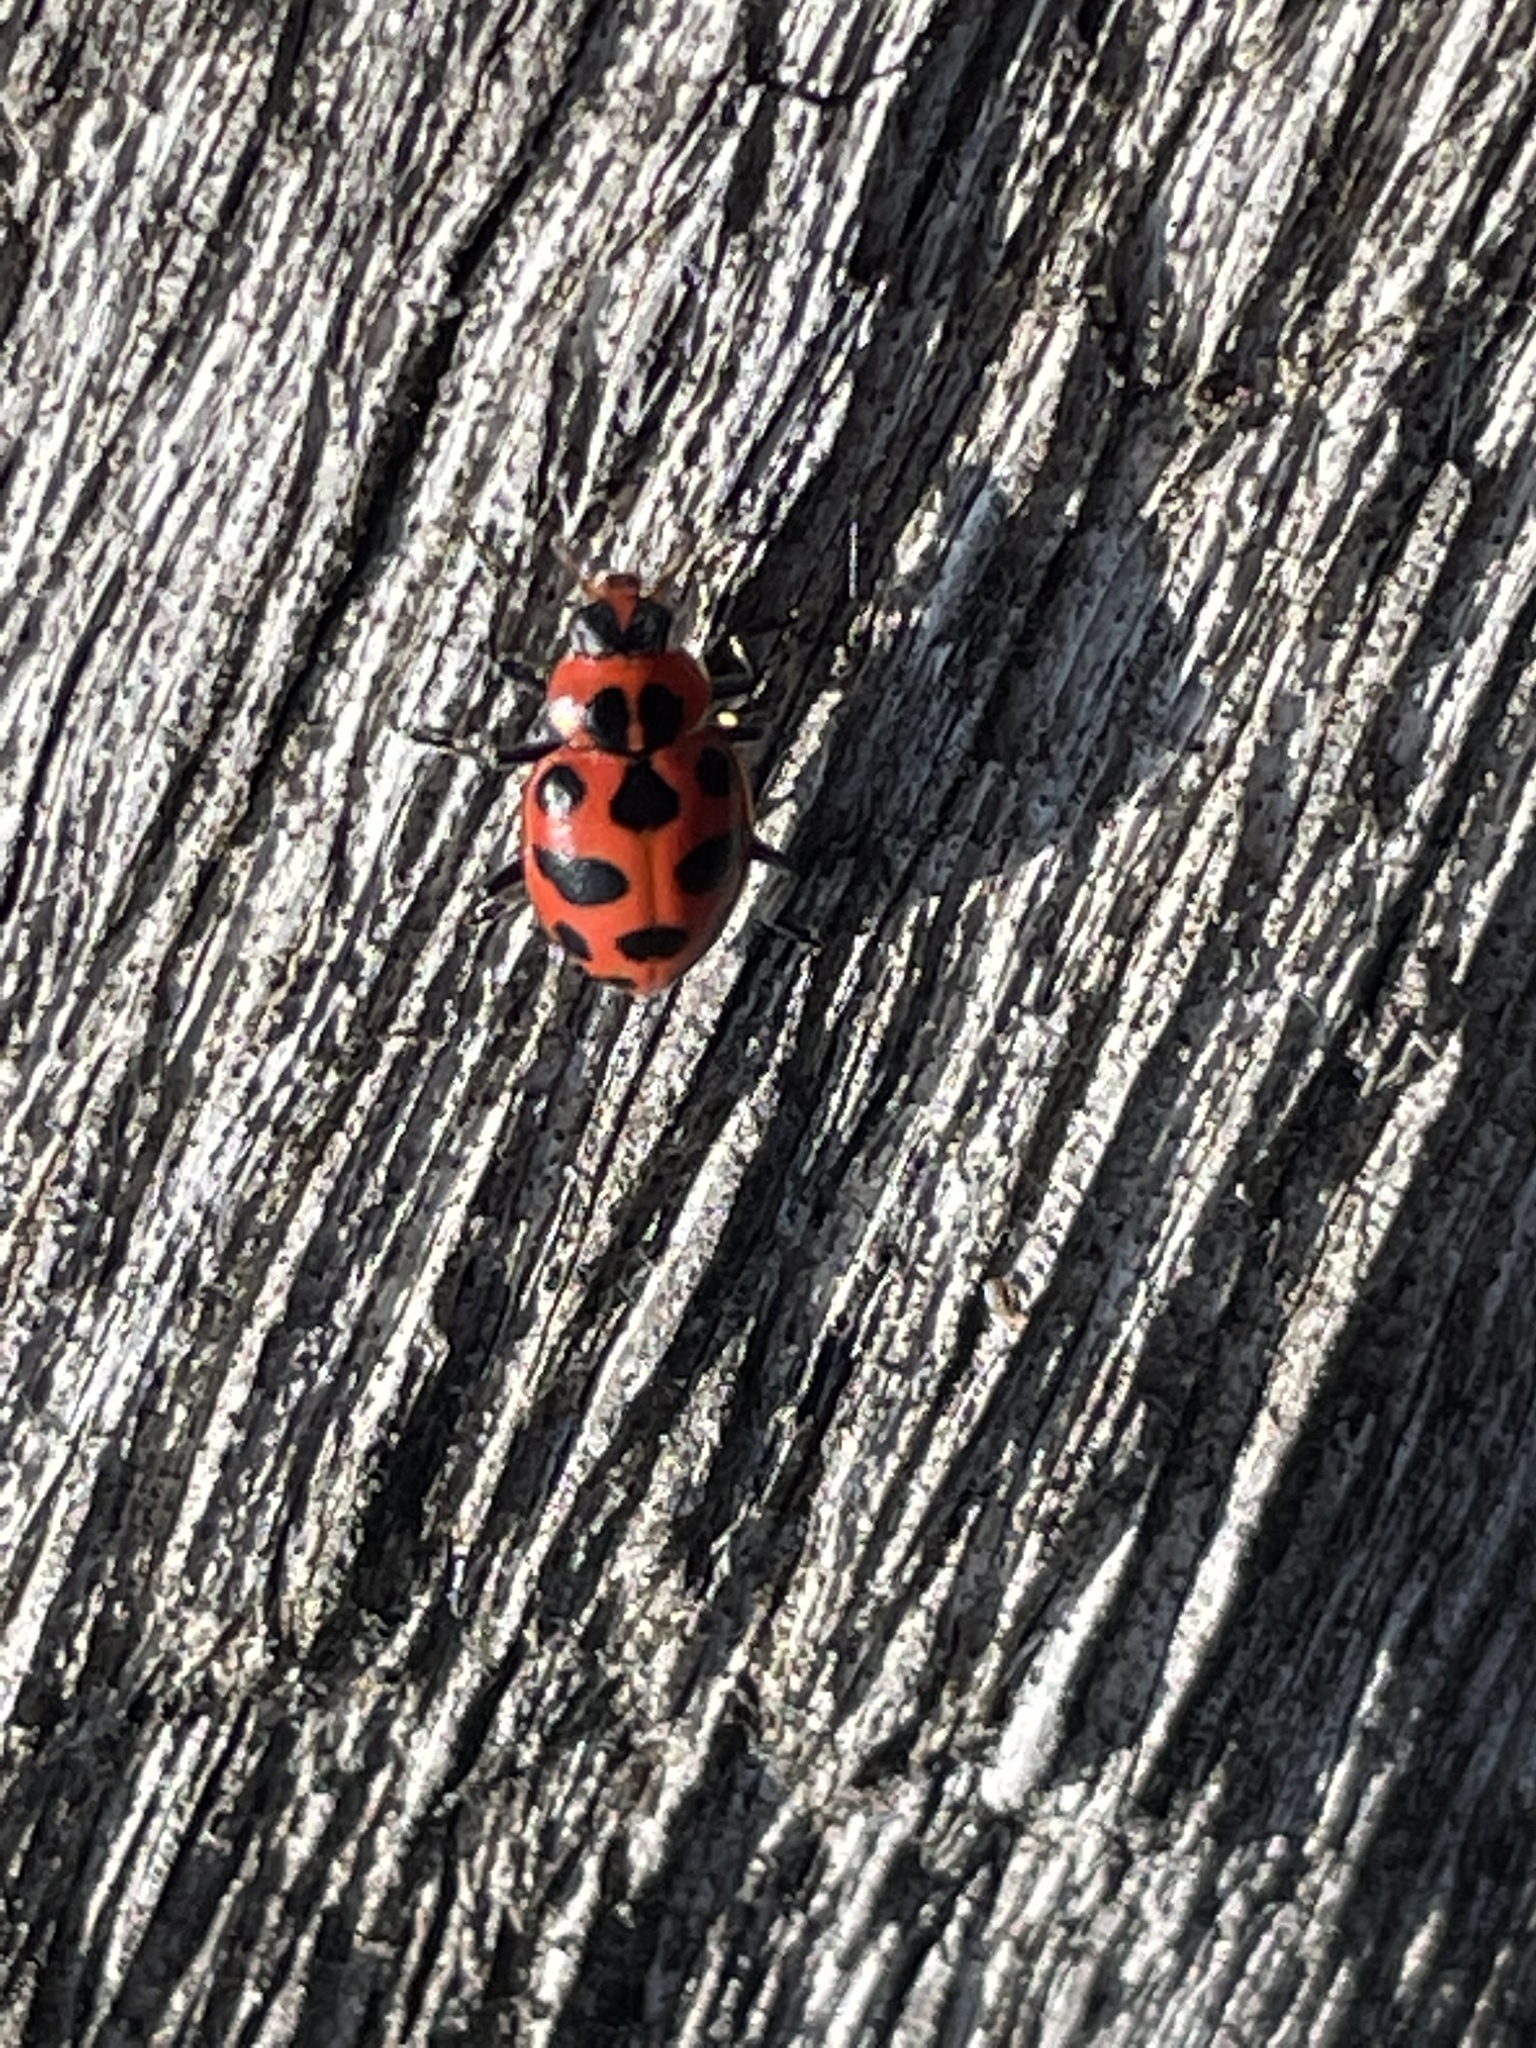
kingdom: Animalia
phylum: Arthropoda
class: Insecta
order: Coleoptera
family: Coccinellidae
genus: Coleomegilla
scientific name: Coleomegilla maculata
